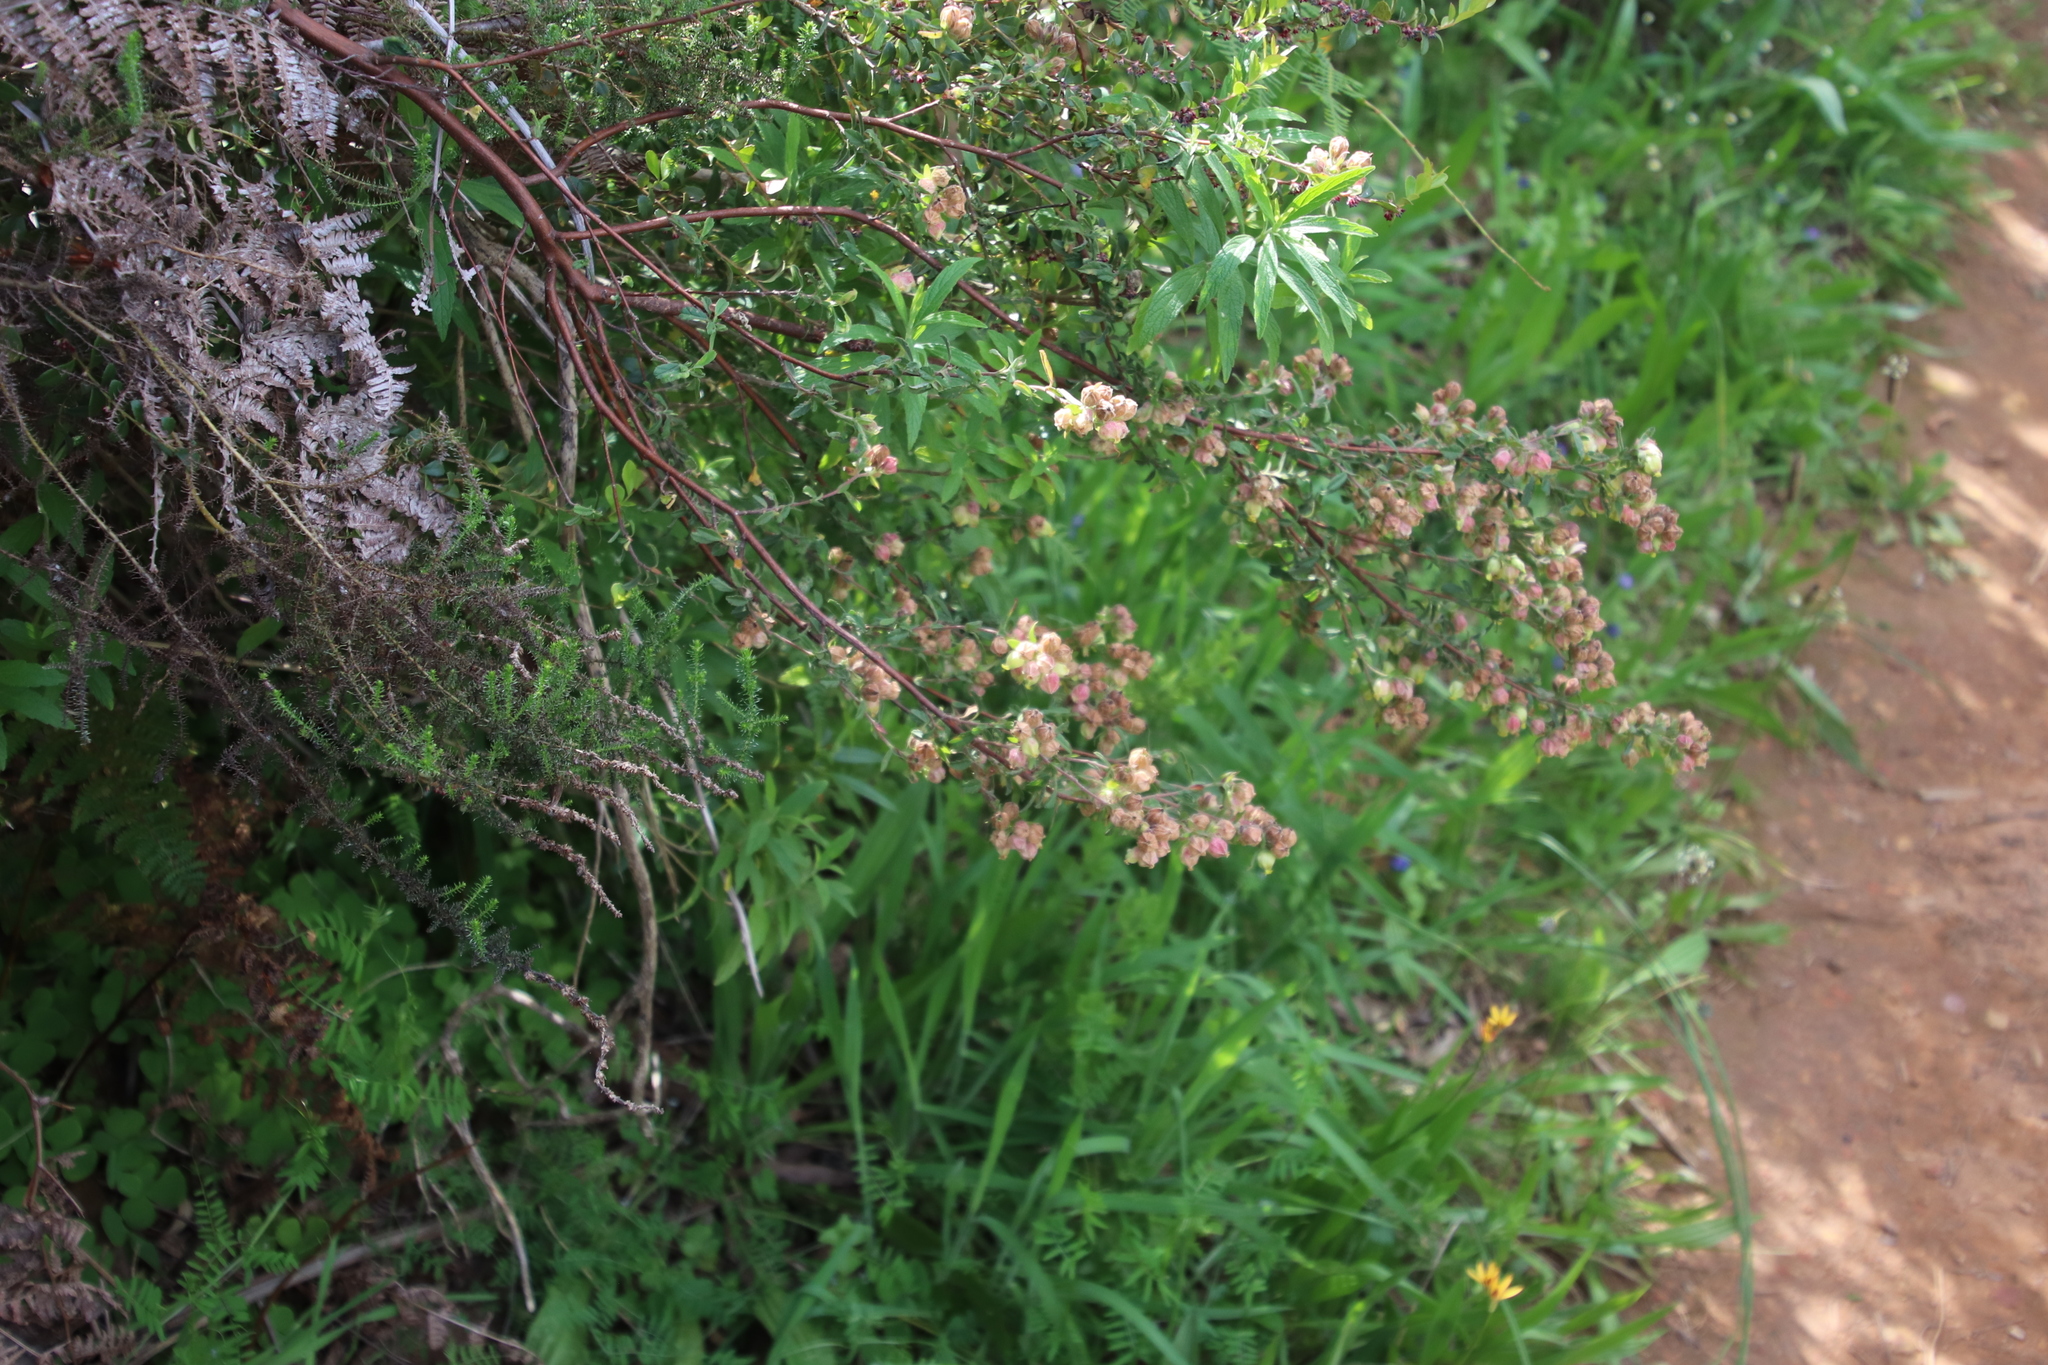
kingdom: Plantae
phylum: Tracheophyta
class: Magnoliopsida
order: Malvales
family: Malvaceae
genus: Hermannia
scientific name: Hermannia hyssopifolia
